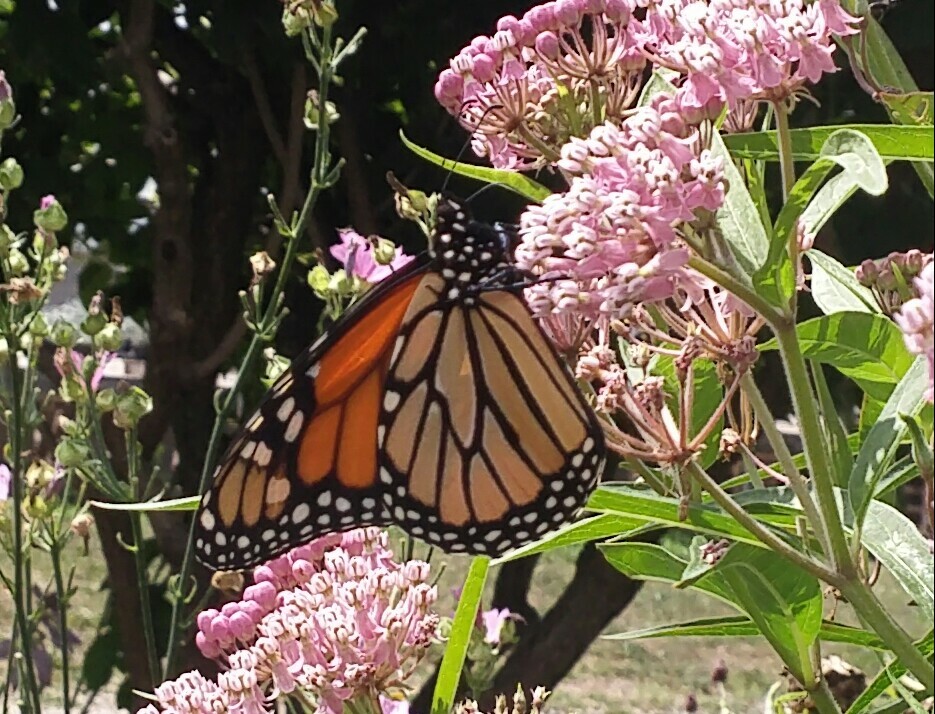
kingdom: Animalia
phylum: Arthropoda
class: Insecta
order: Lepidoptera
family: Nymphalidae
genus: Danaus
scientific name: Danaus plexippus
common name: Monarch
